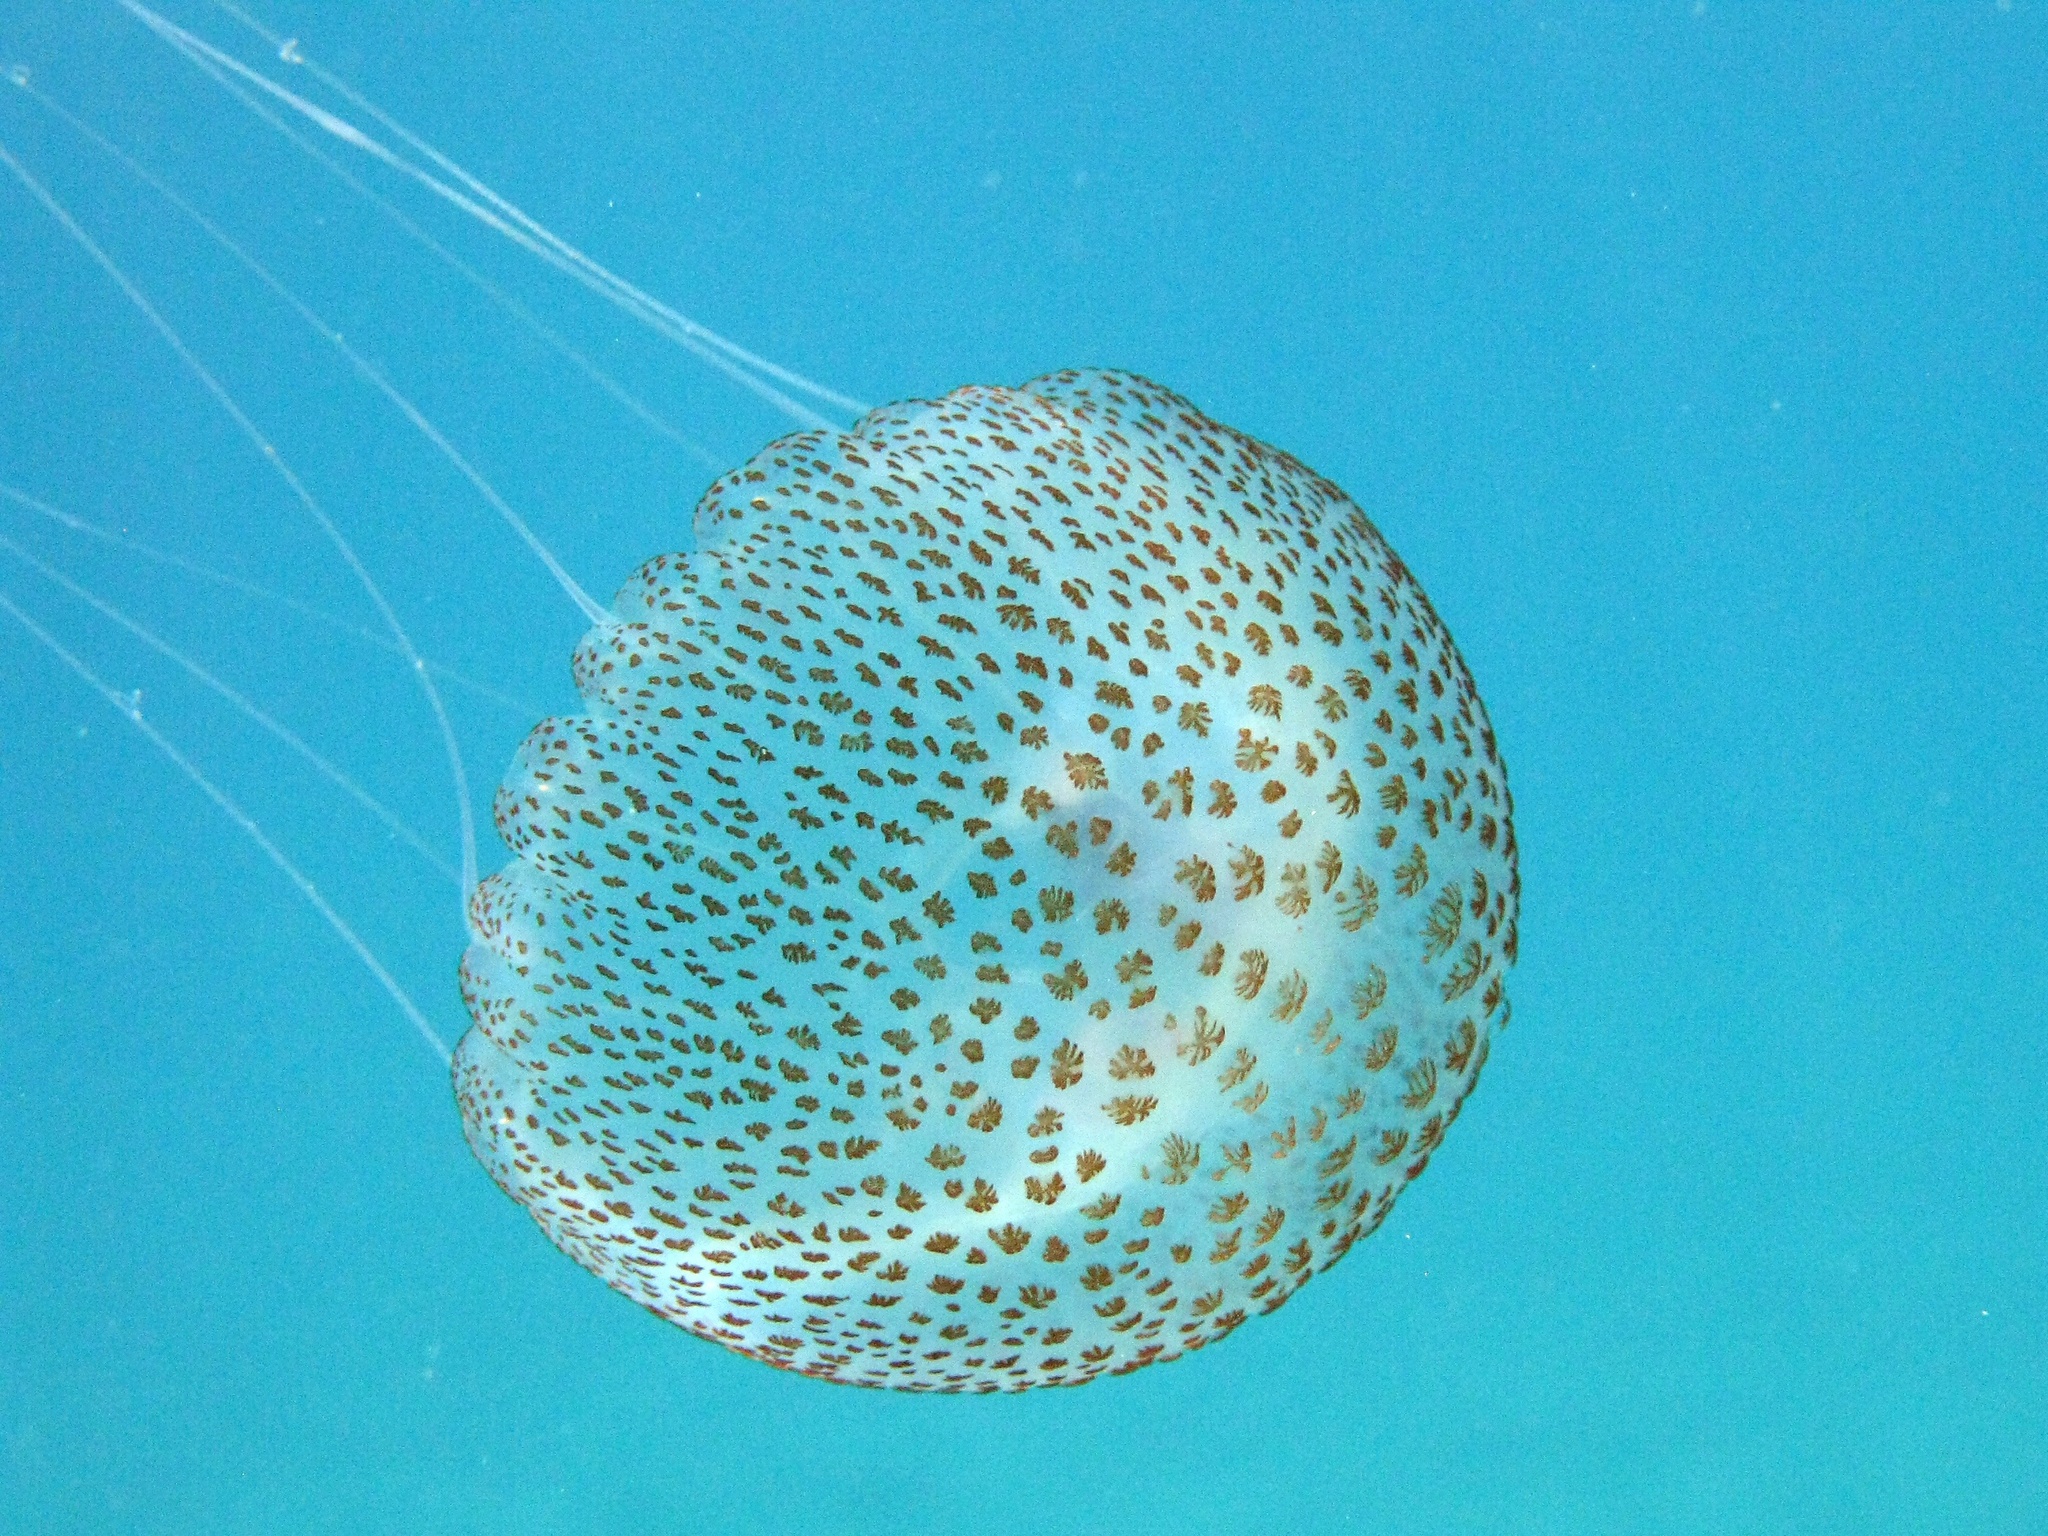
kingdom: Animalia
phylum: Cnidaria
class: Scyphozoa
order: Semaeostomeae
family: Pelagiidae
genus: Pelagia
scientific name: Pelagia noctiluca
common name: Mauve stinger
